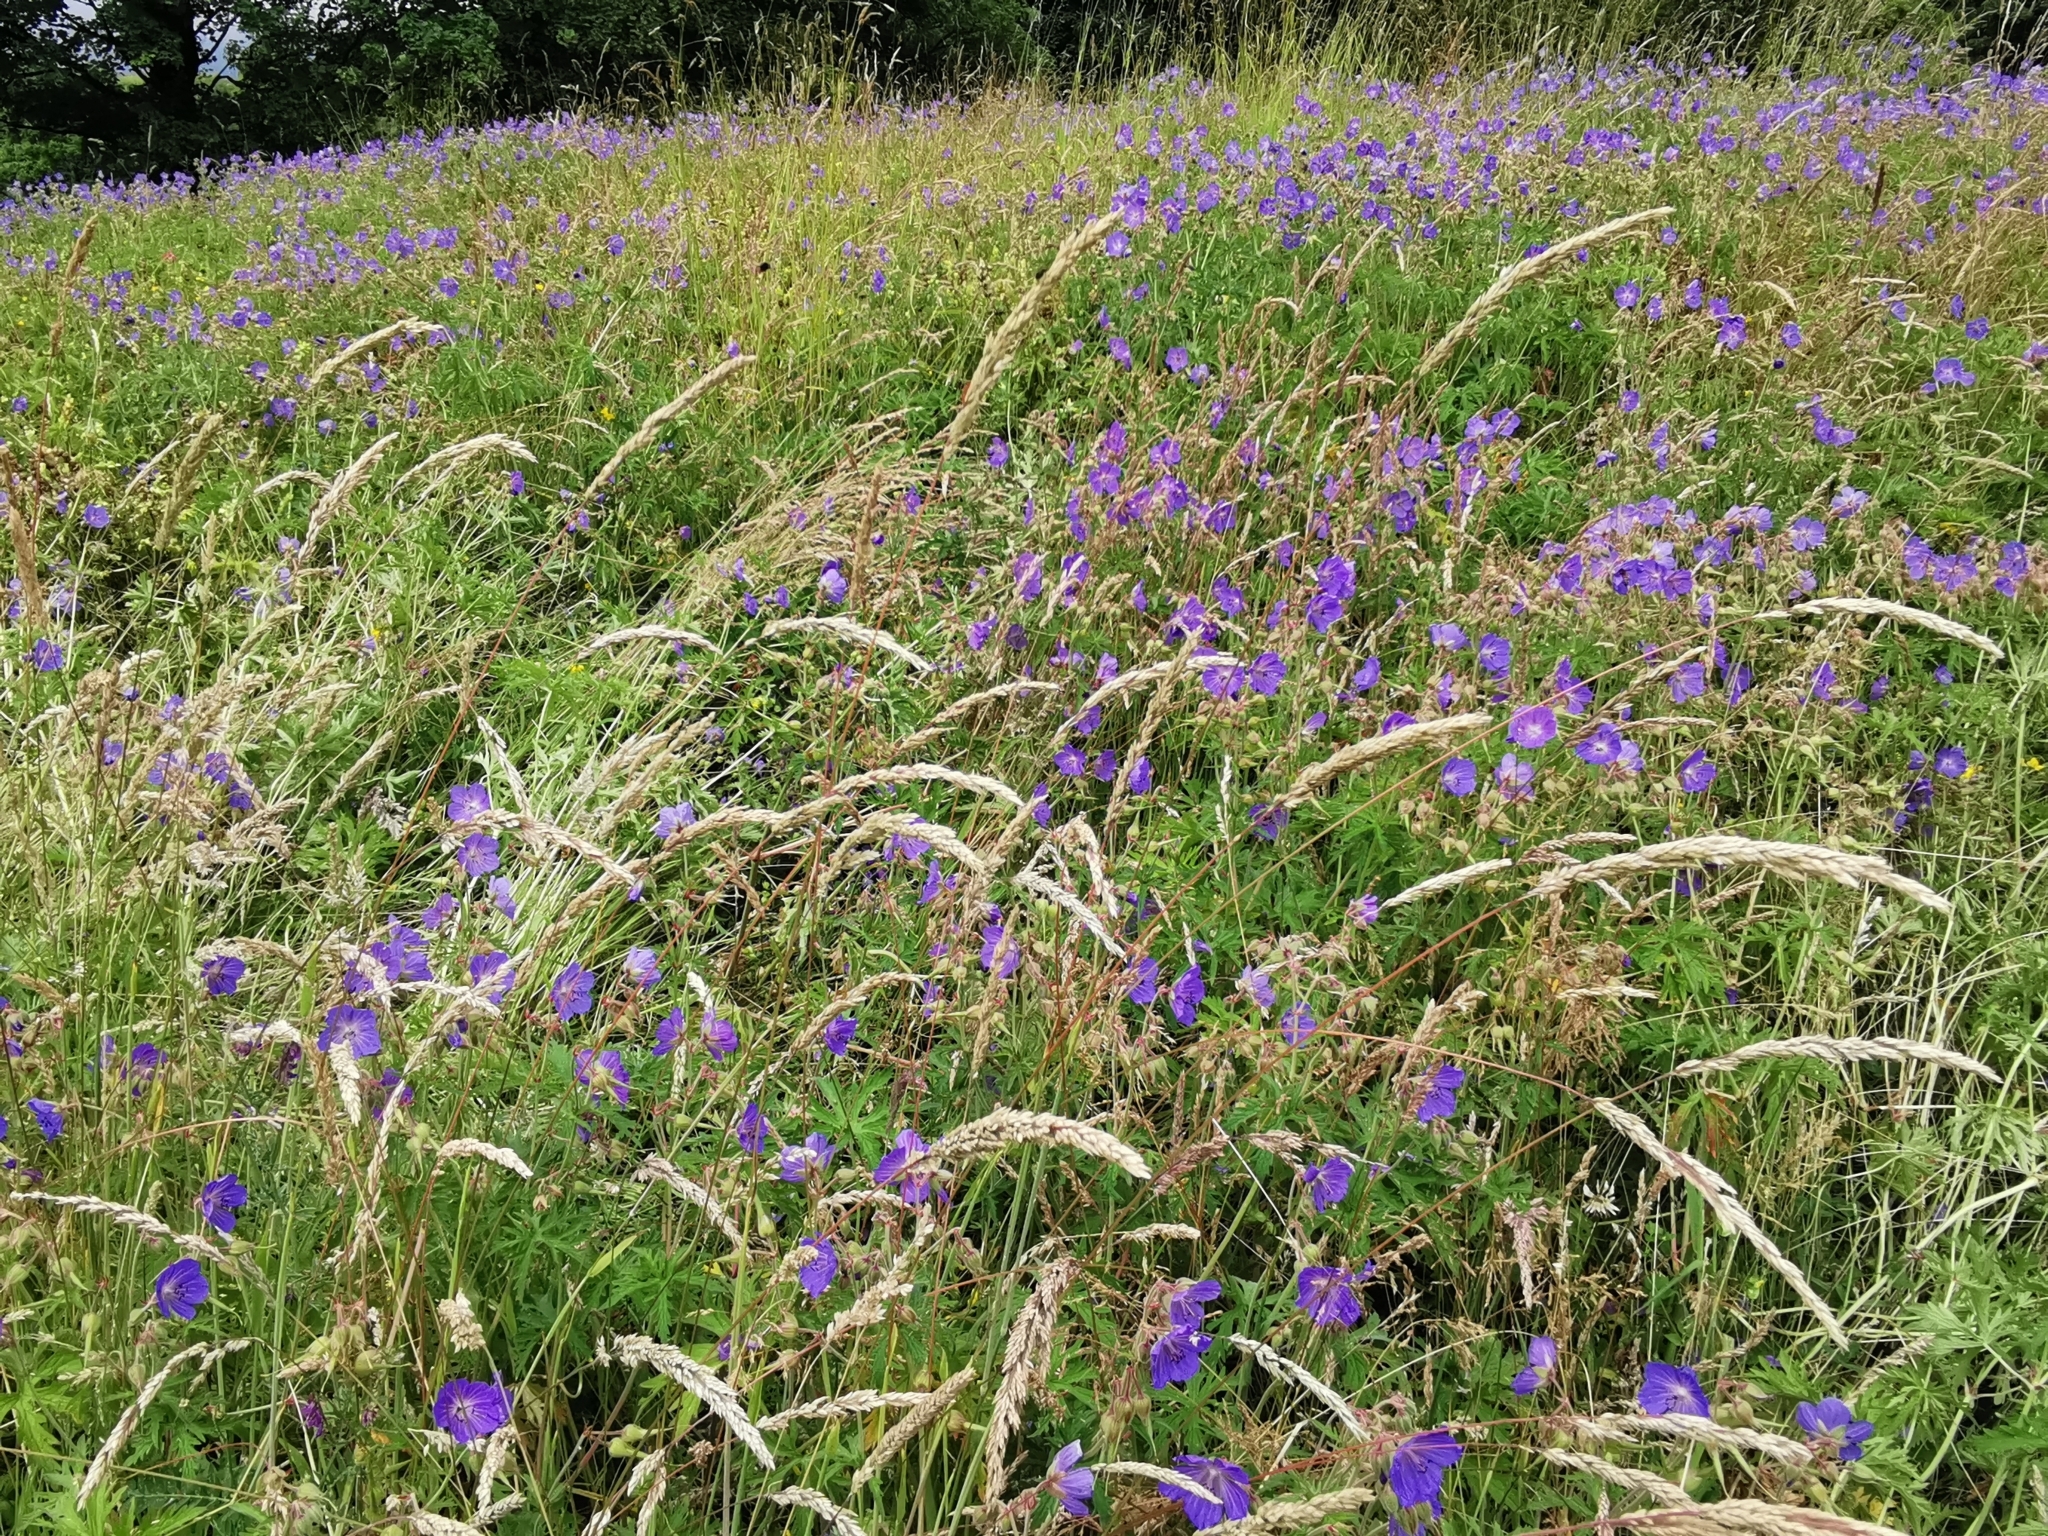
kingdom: Plantae
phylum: Tracheophyta
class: Magnoliopsida
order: Geraniales
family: Geraniaceae
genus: Geranium
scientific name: Geranium pratense
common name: Meadow crane's-bill
